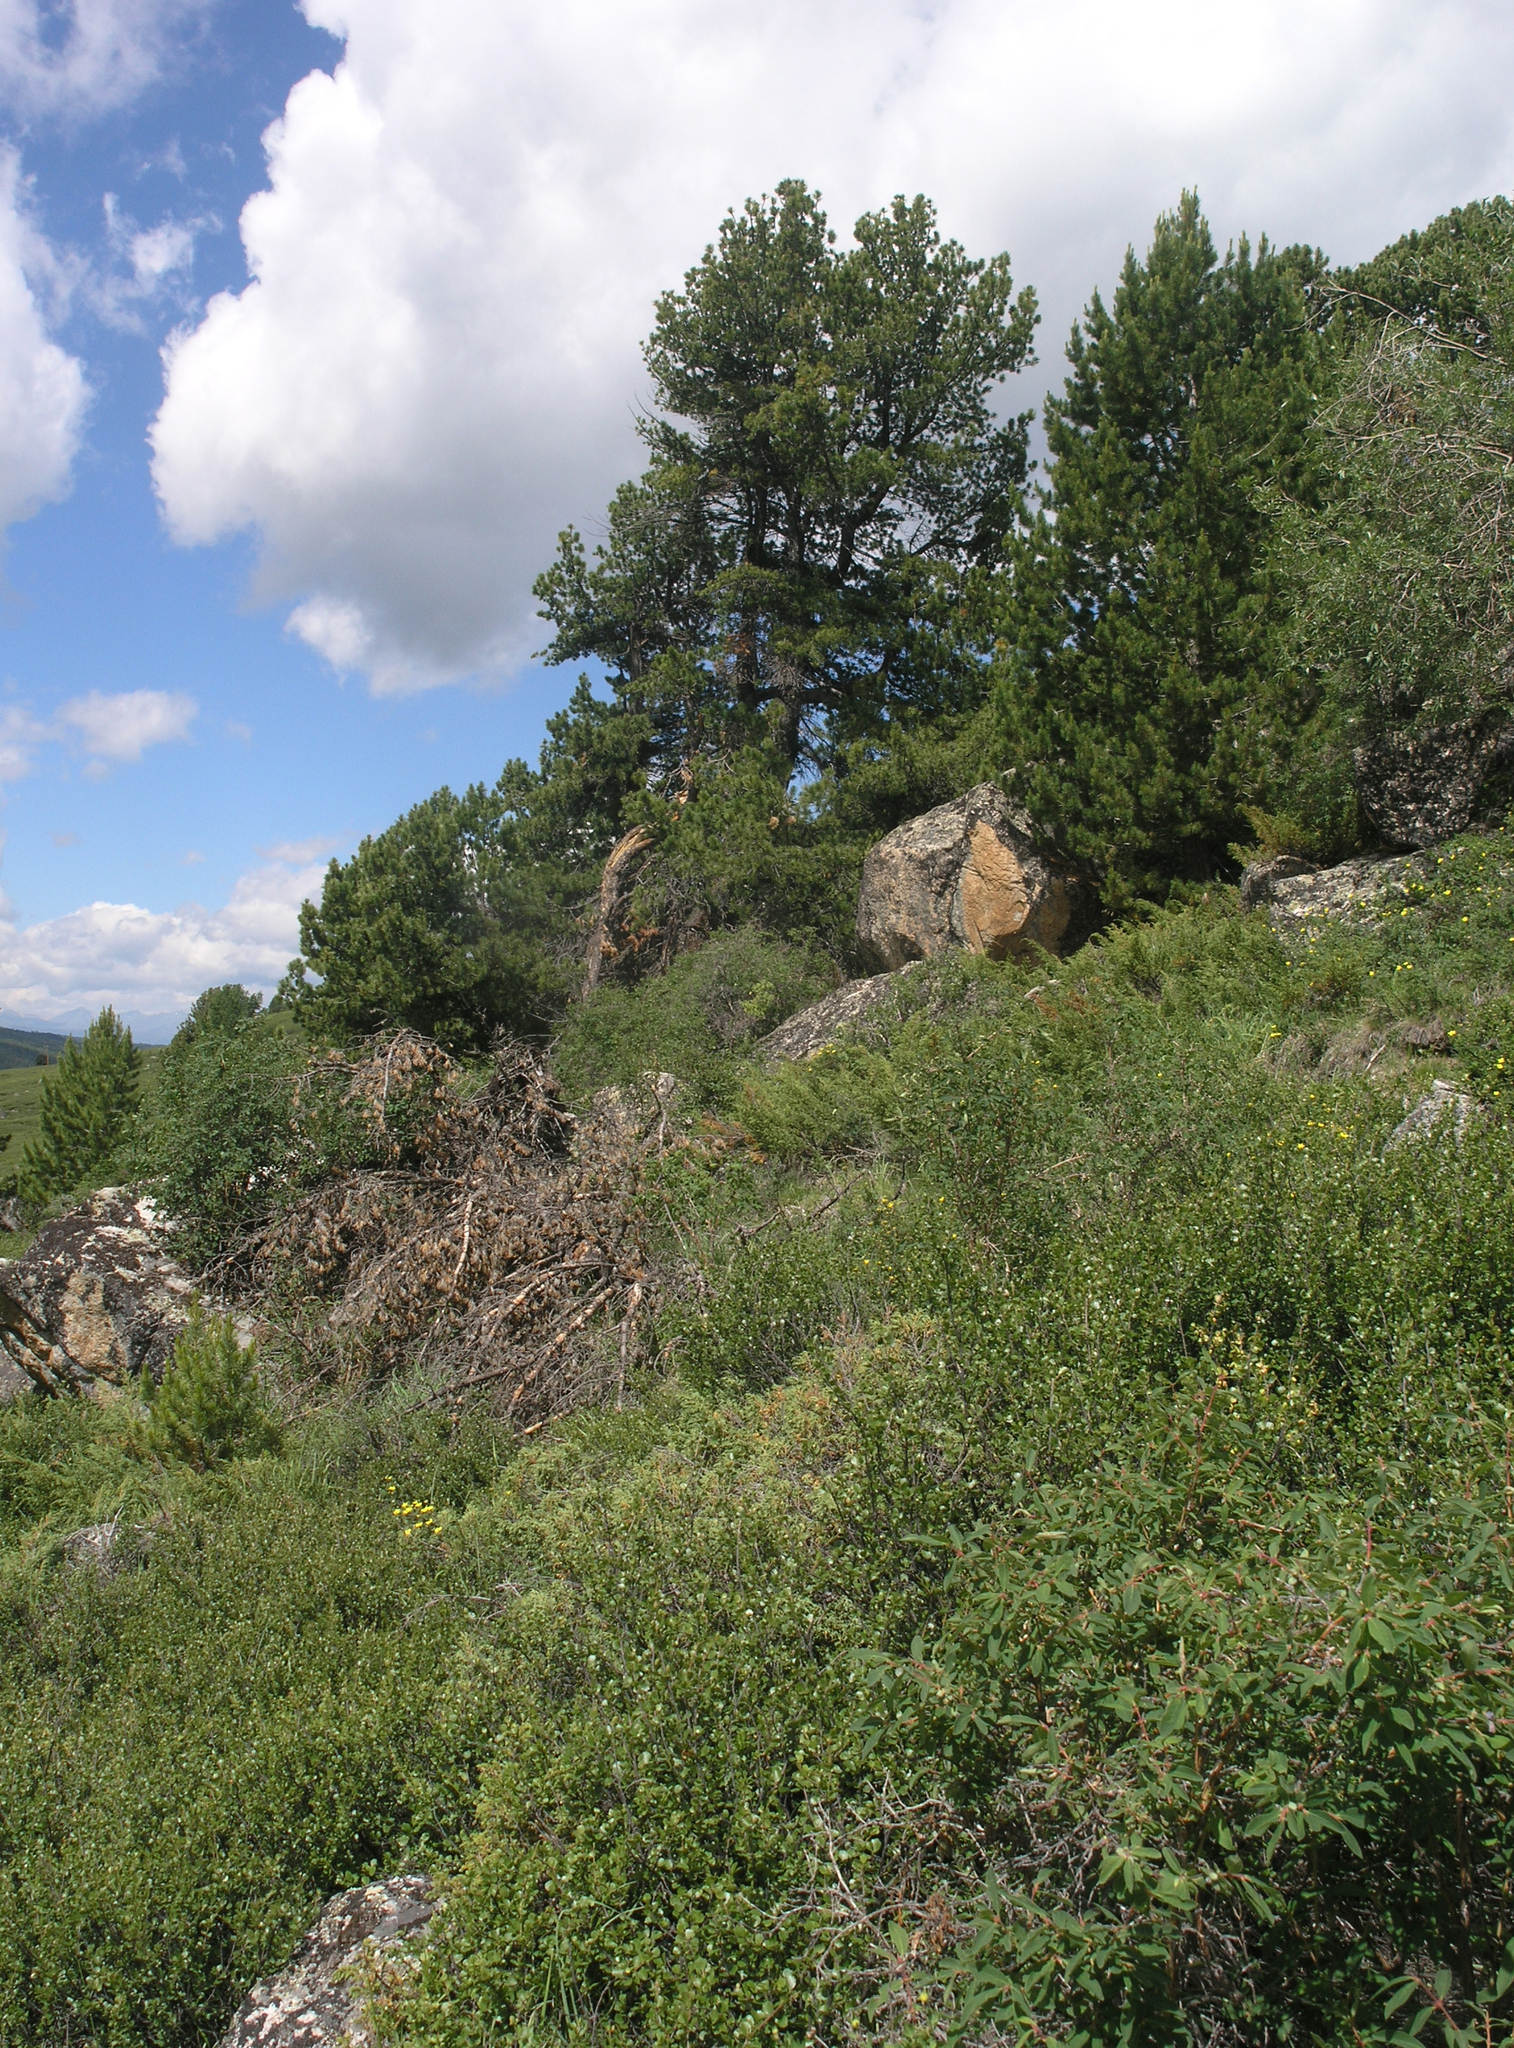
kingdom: Plantae
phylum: Tracheophyta
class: Pinopsida
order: Pinales
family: Pinaceae
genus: Pinus
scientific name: Pinus sibirica
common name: Siberian pine
